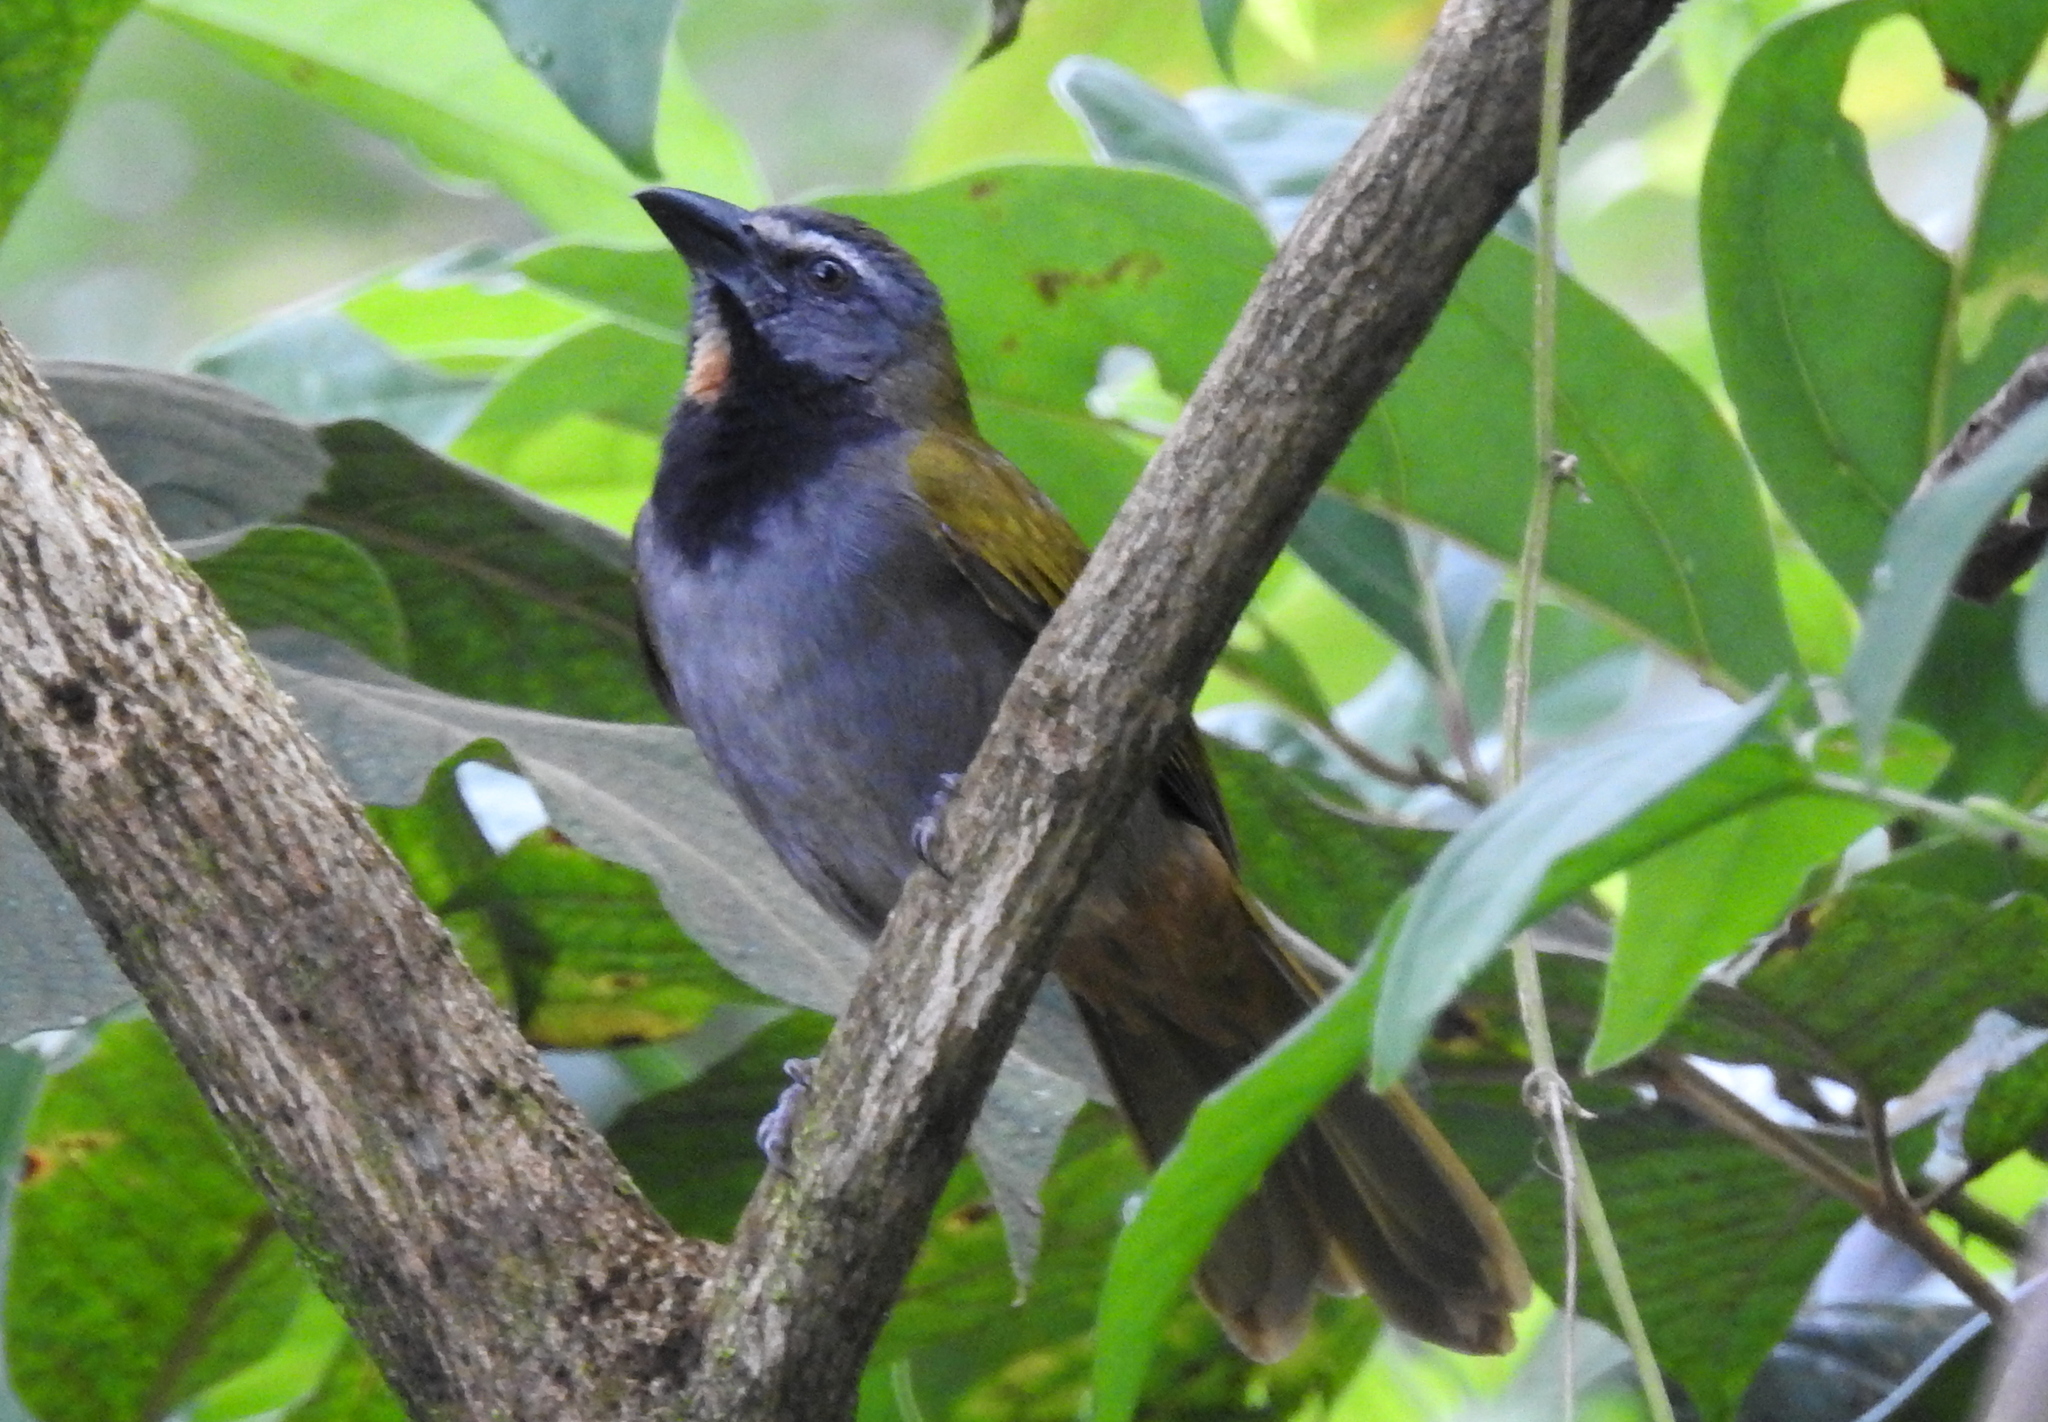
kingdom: Animalia
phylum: Chordata
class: Aves
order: Passeriformes
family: Thraupidae
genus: Saltator
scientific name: Saltator maximus
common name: Buff-throated saltator
